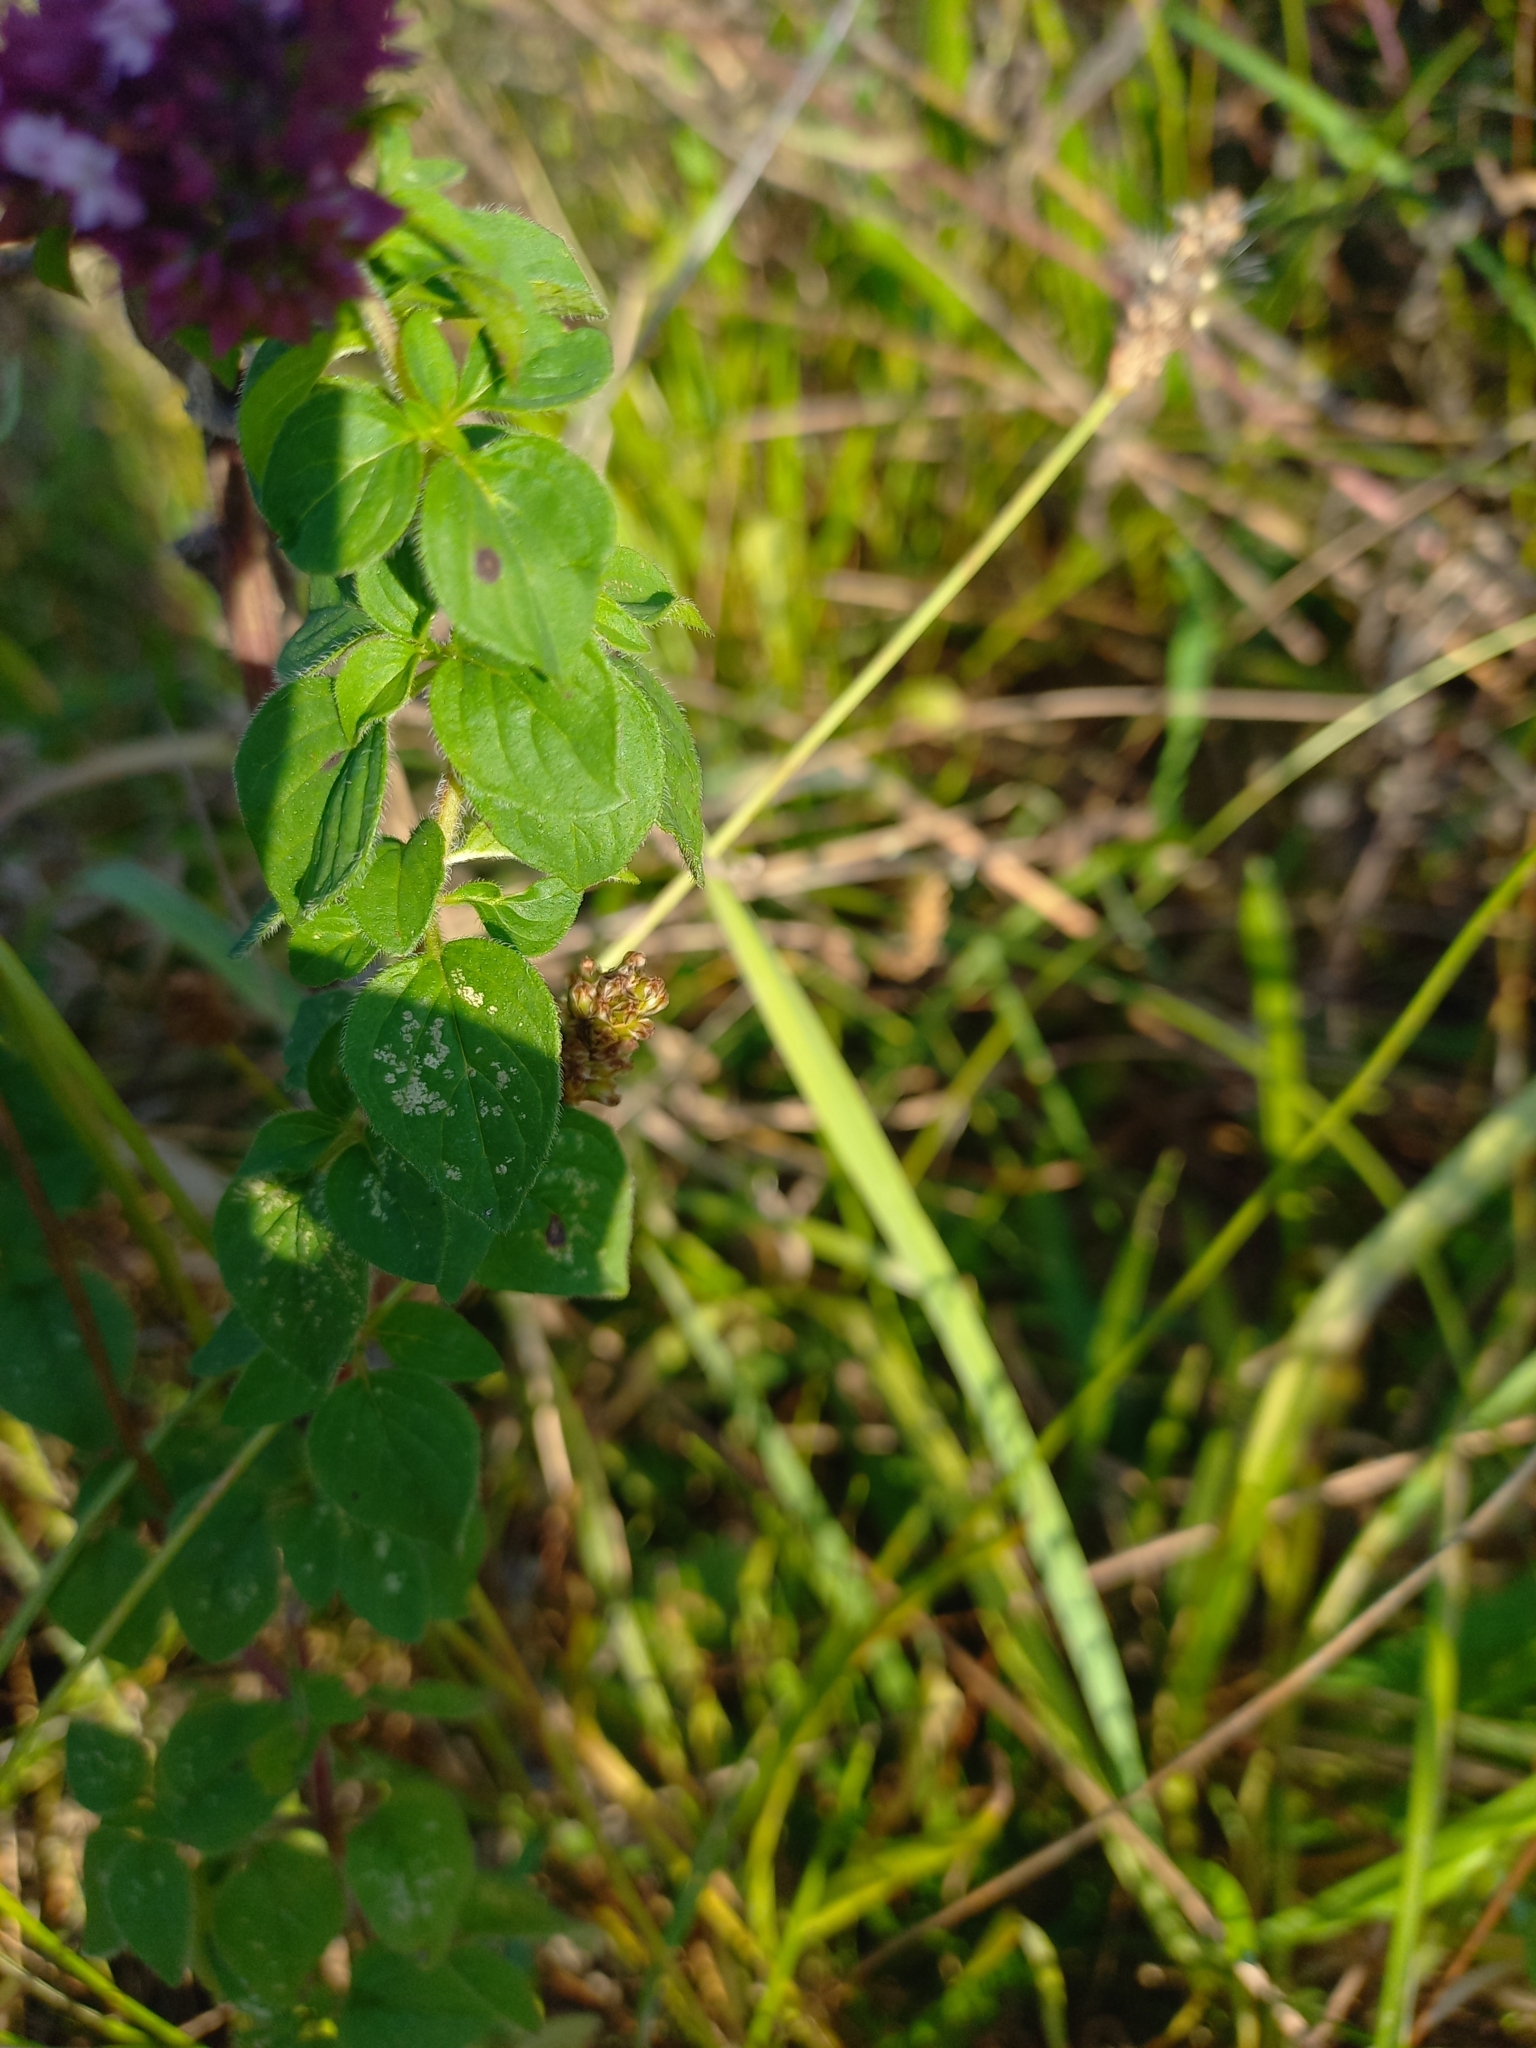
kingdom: Plantae
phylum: Tracheophyta
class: Magnoliopsida
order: Lamiales
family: Lamiaceae
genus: Origanum
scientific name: Origanum vulgare
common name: Wild marjoram
